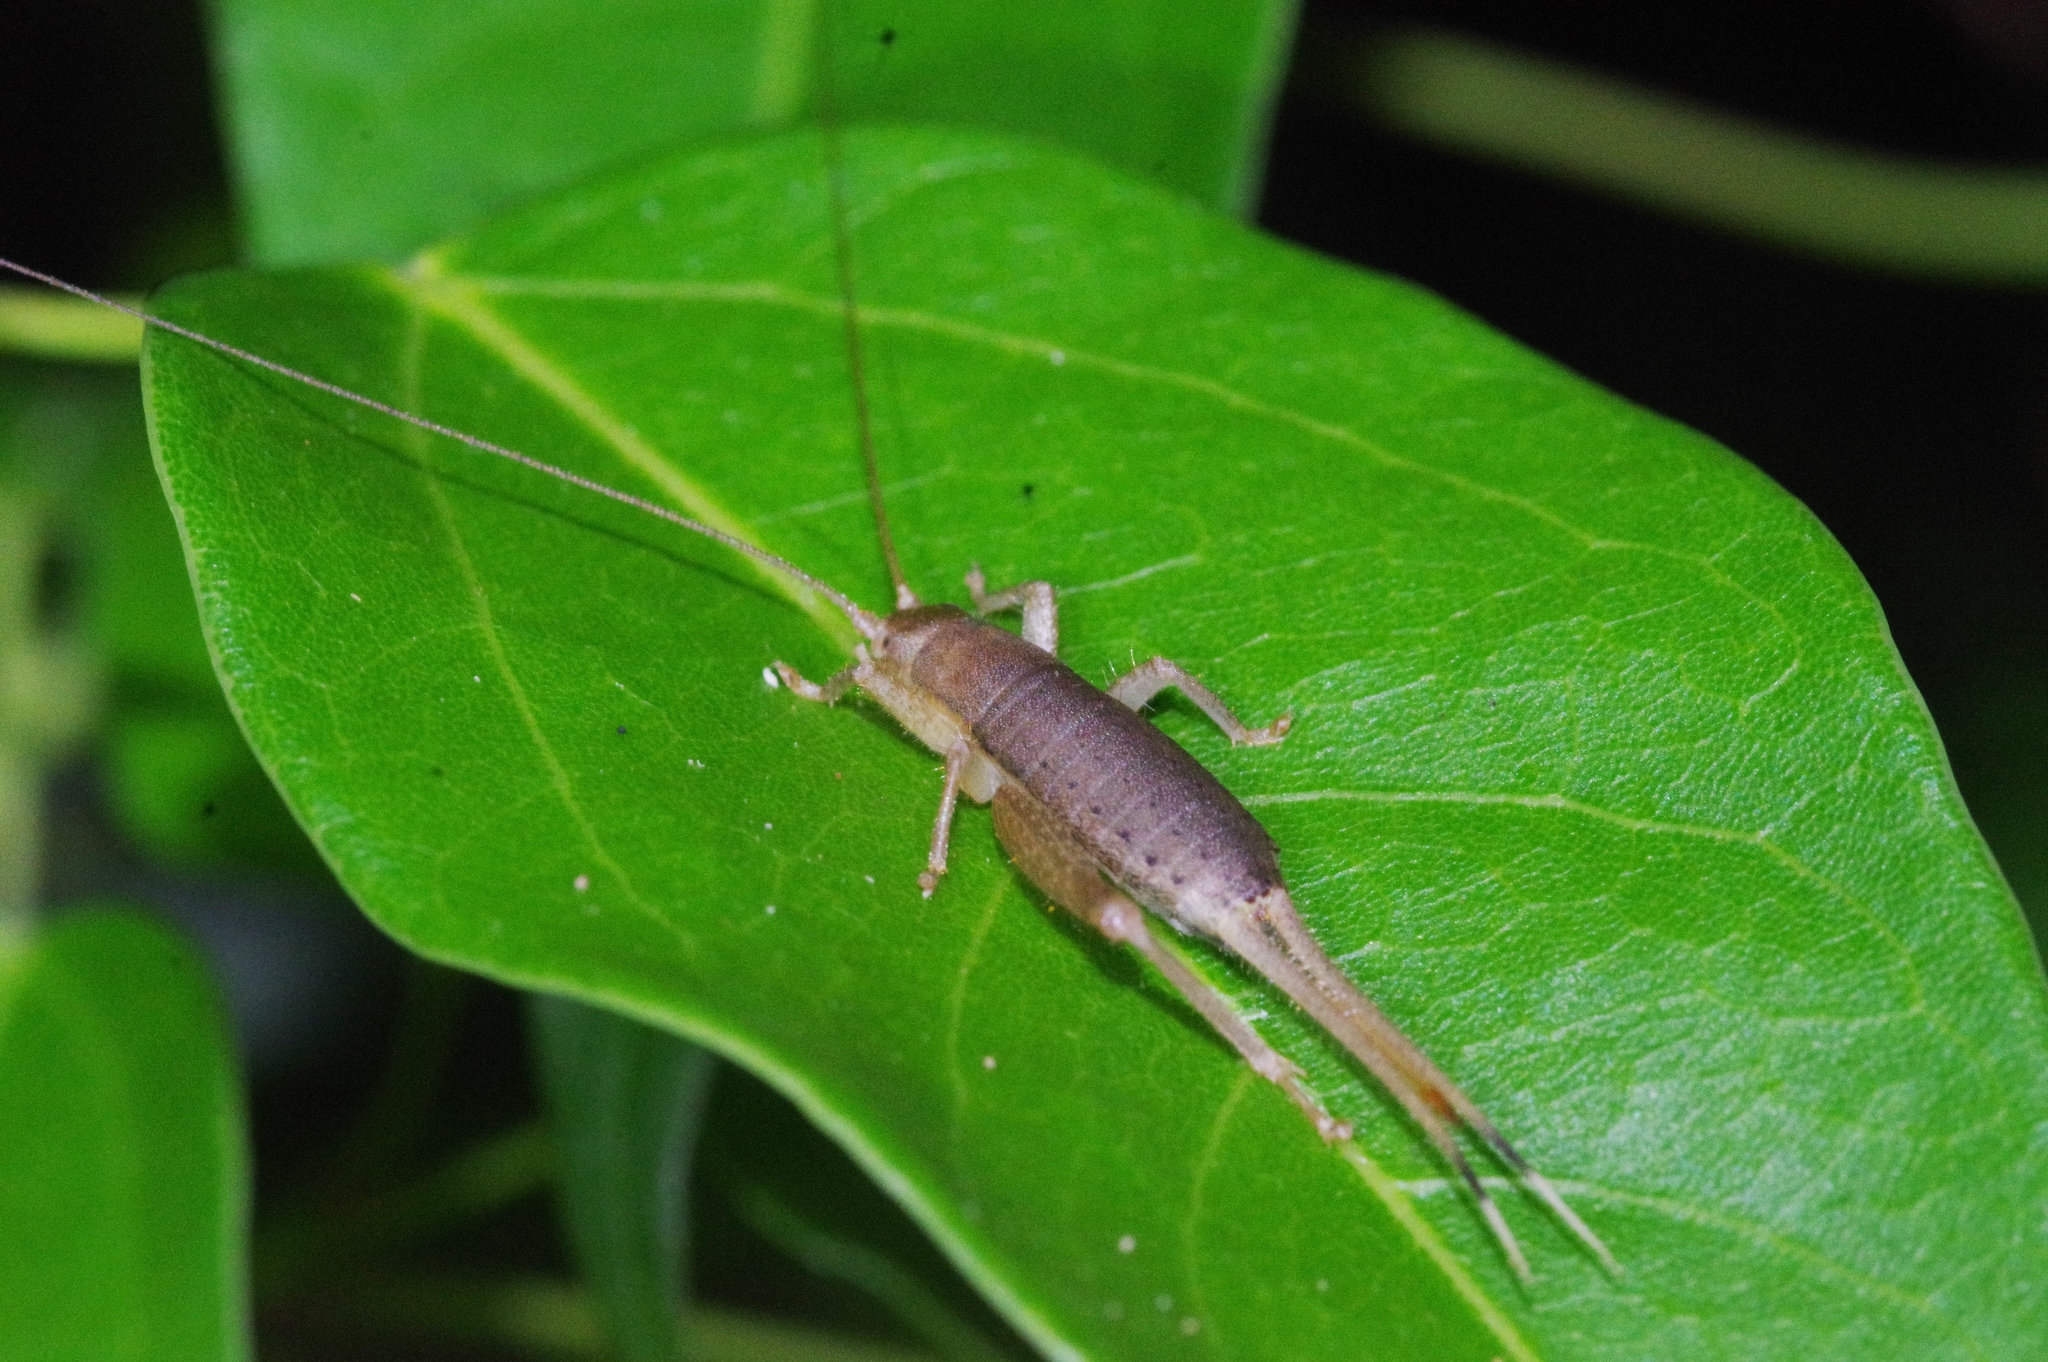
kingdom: Animalia
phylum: Arthropoda
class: Insecta
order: Orthoptera
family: Mogoplistidae
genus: Ornebius
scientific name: Ornebius bimaculatus
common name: Cricket
